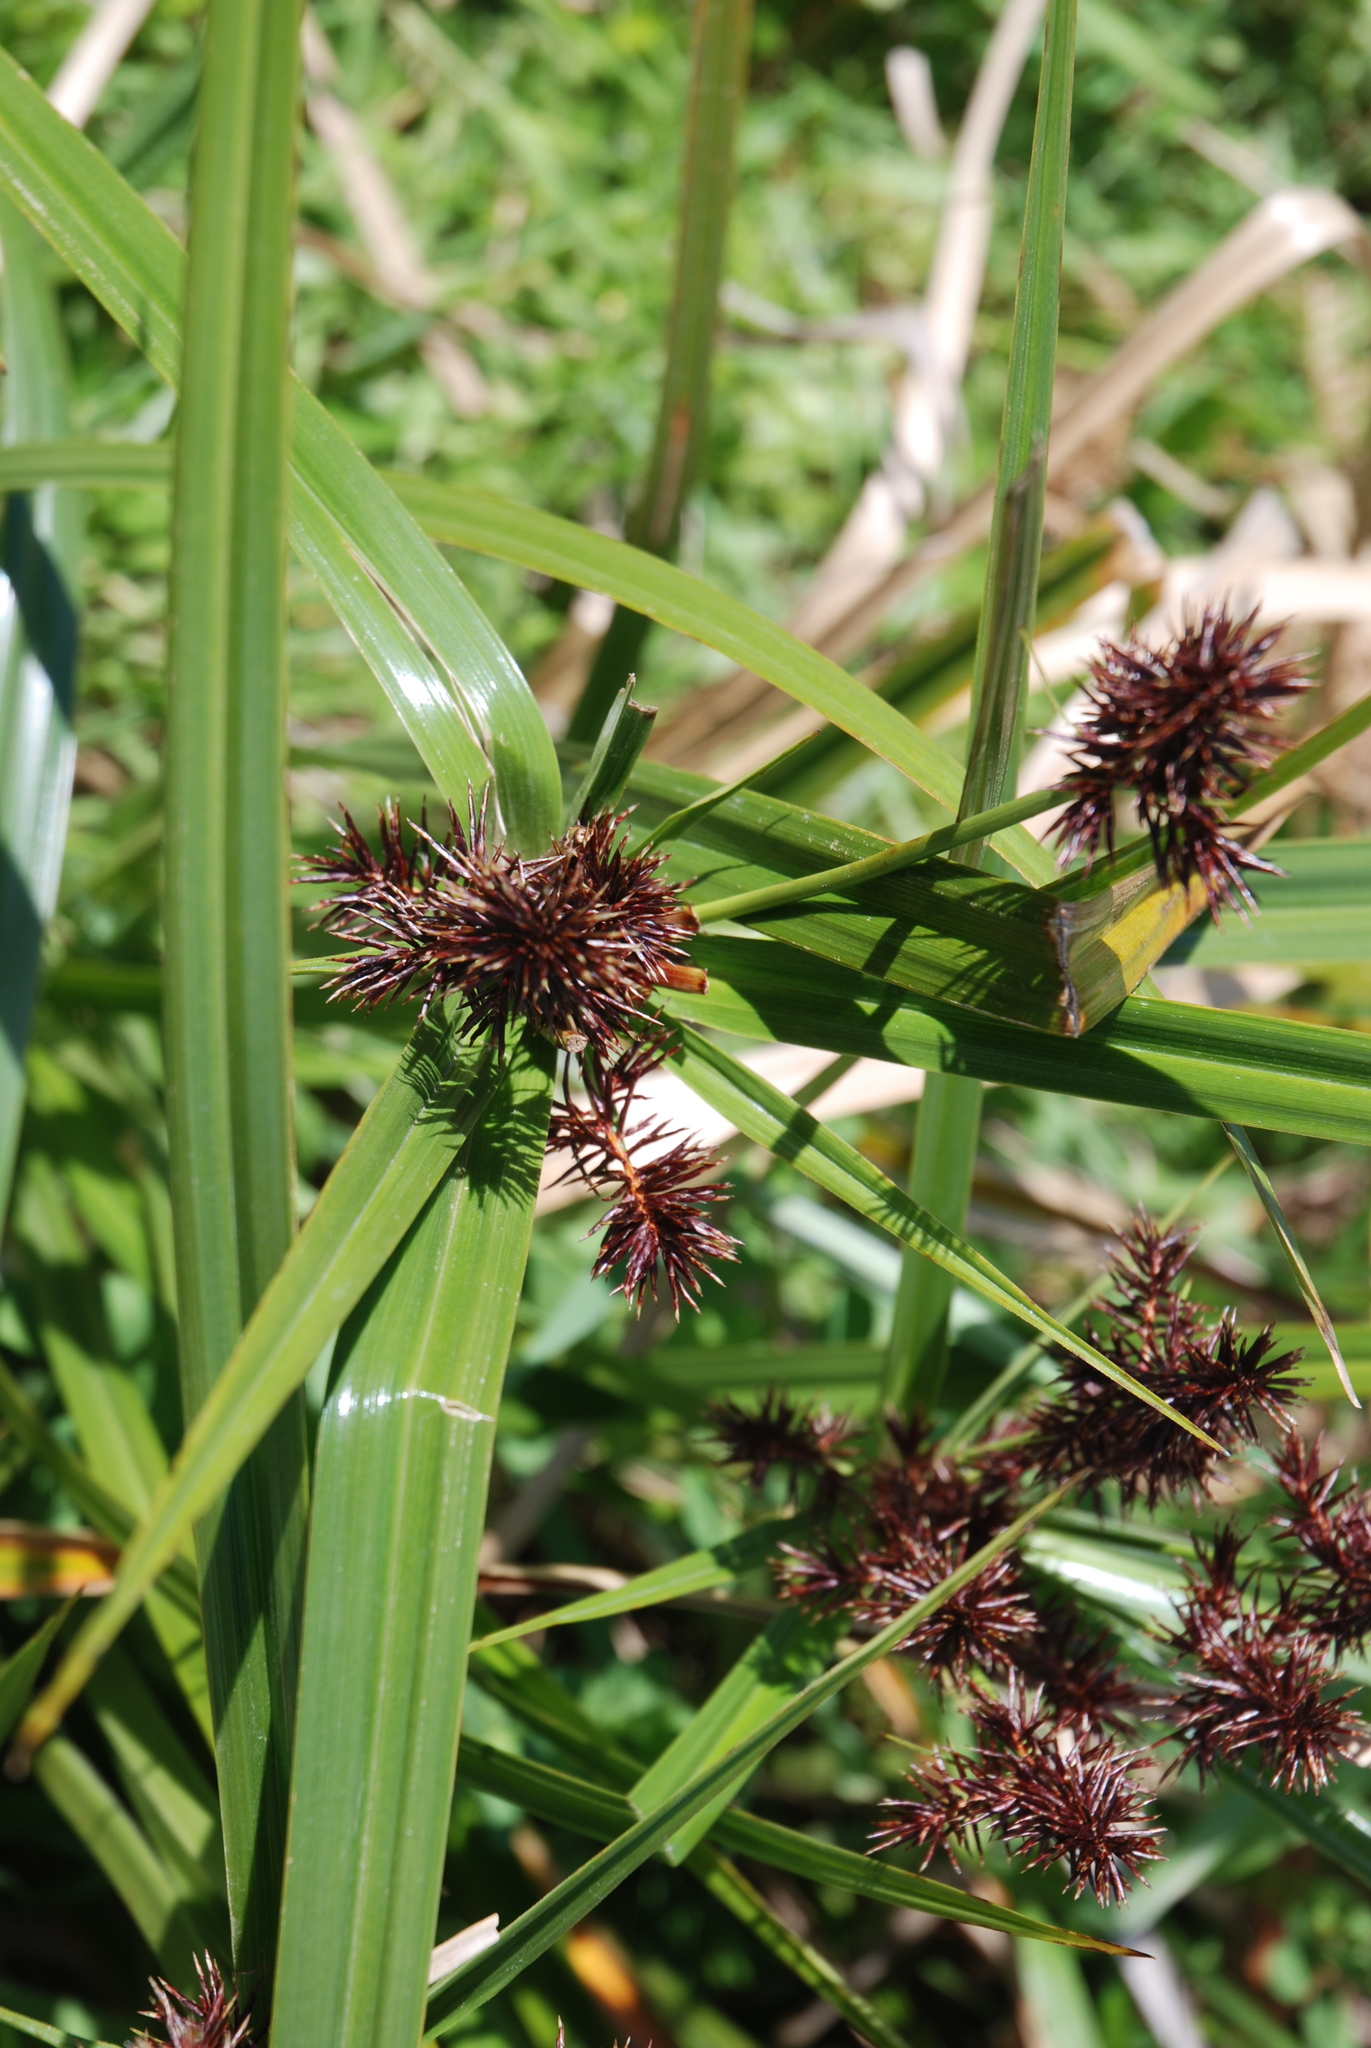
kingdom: Plantae
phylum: Tracheophyta
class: Liliopsida
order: Poales
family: Cyperaceae
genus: Cyperus
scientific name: Cyperus lucidus
